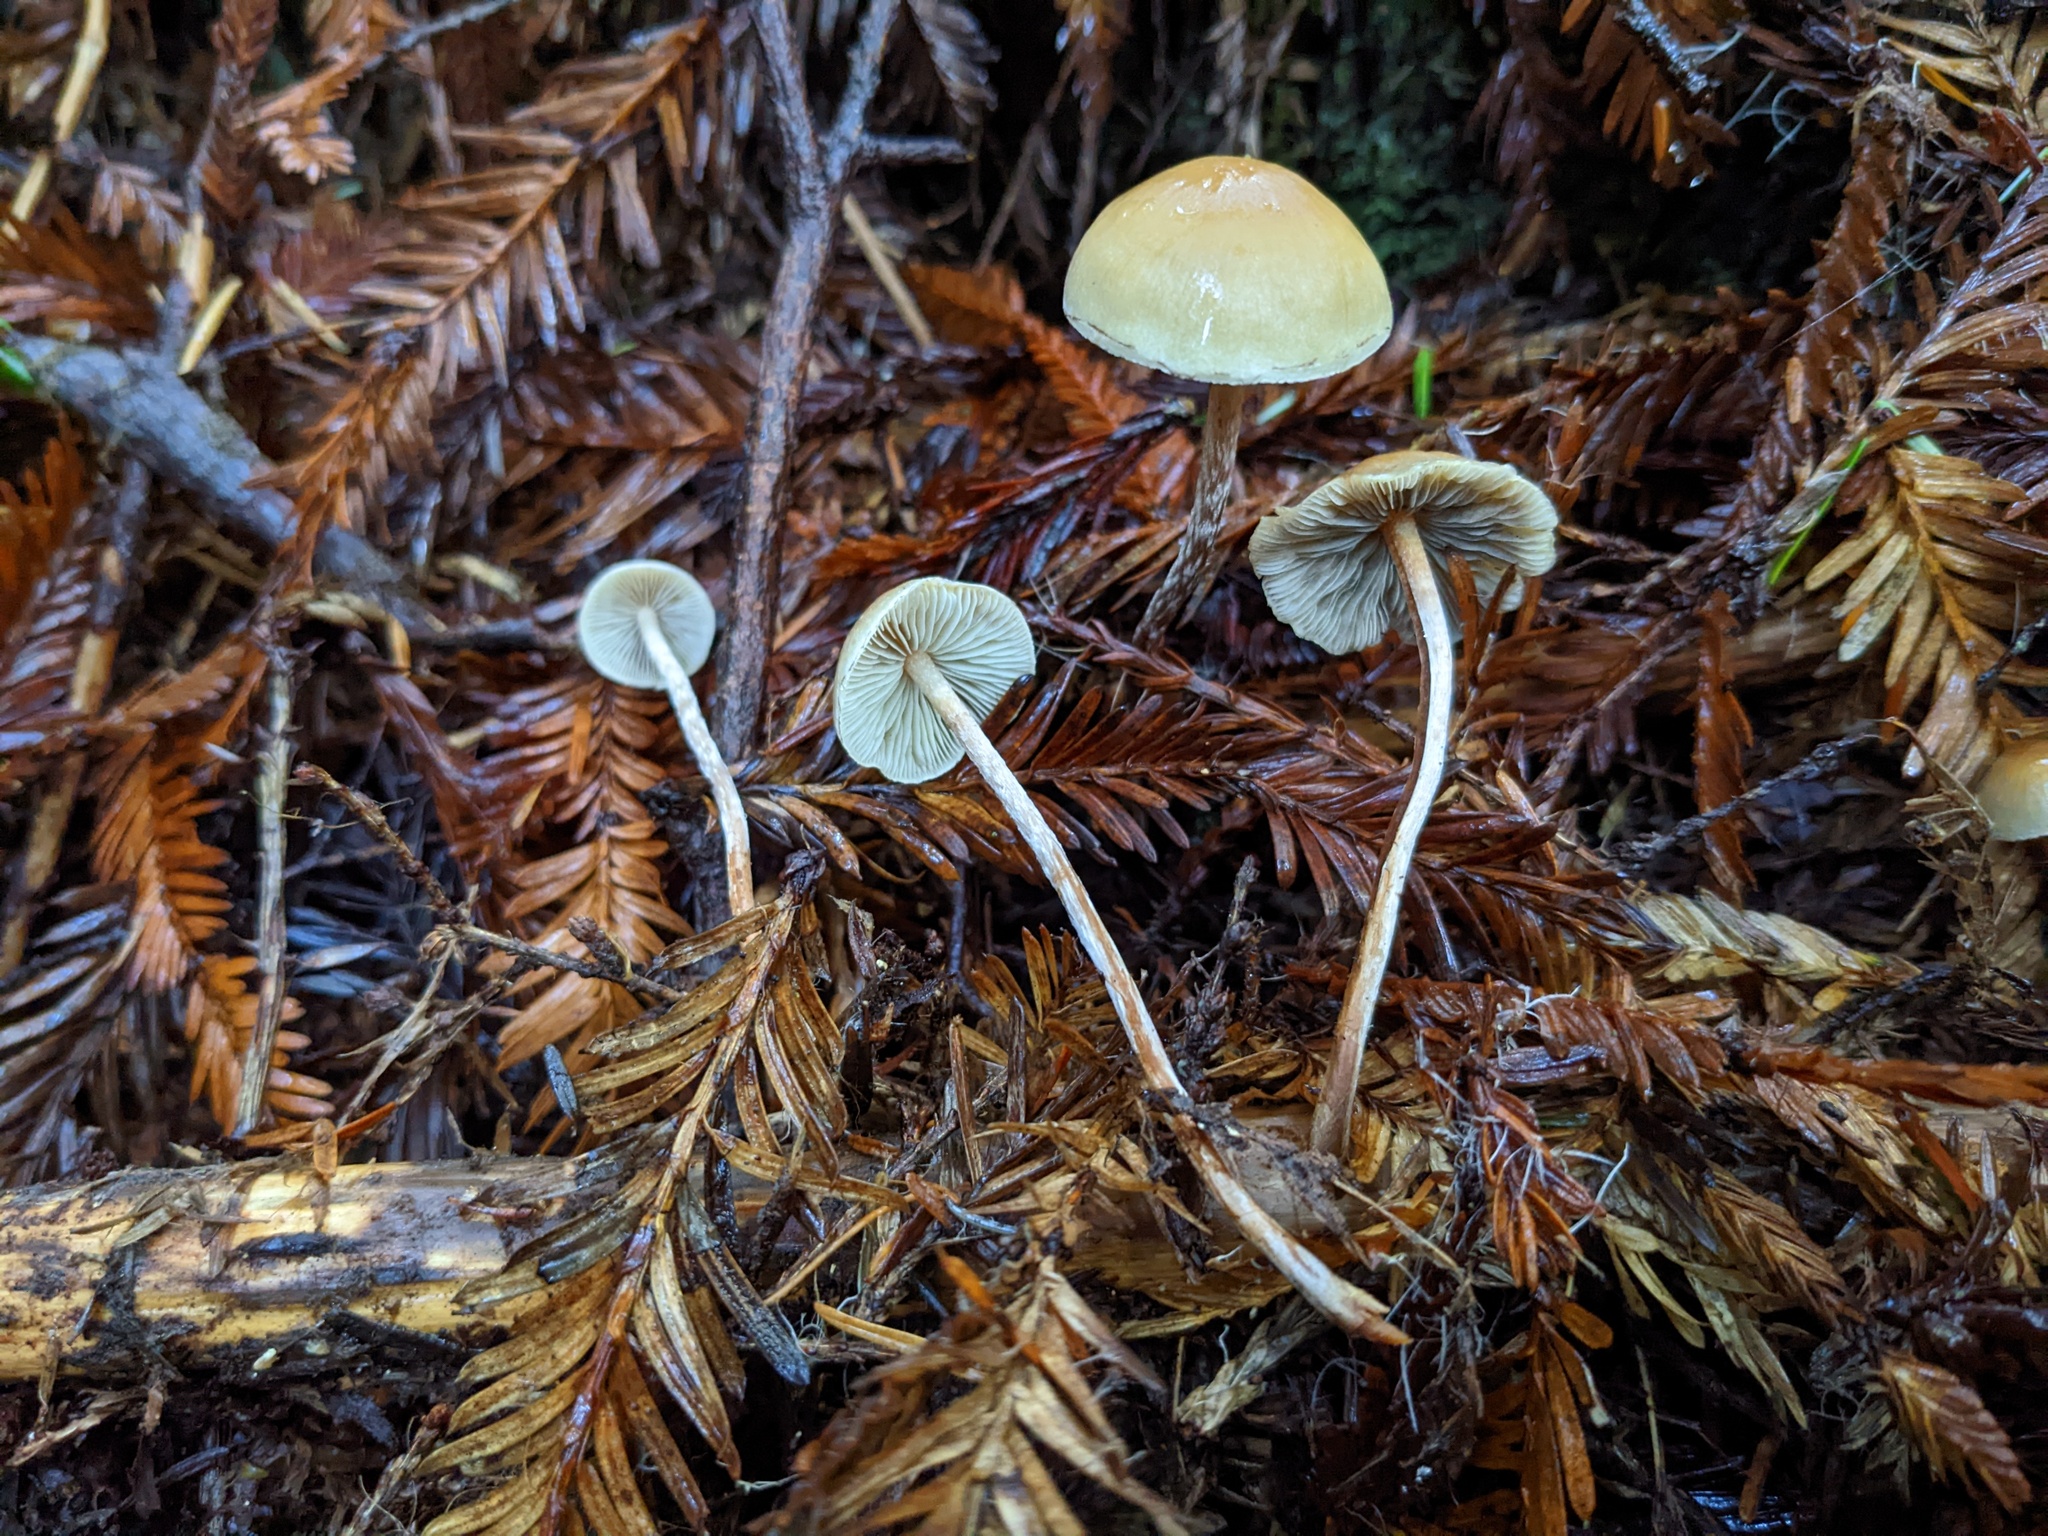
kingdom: Fungi
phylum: Basidiomycota
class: Agaricomycetes
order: Agaricales
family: Strophariaceae
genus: Hypholoma
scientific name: Hypholoma dispersum
